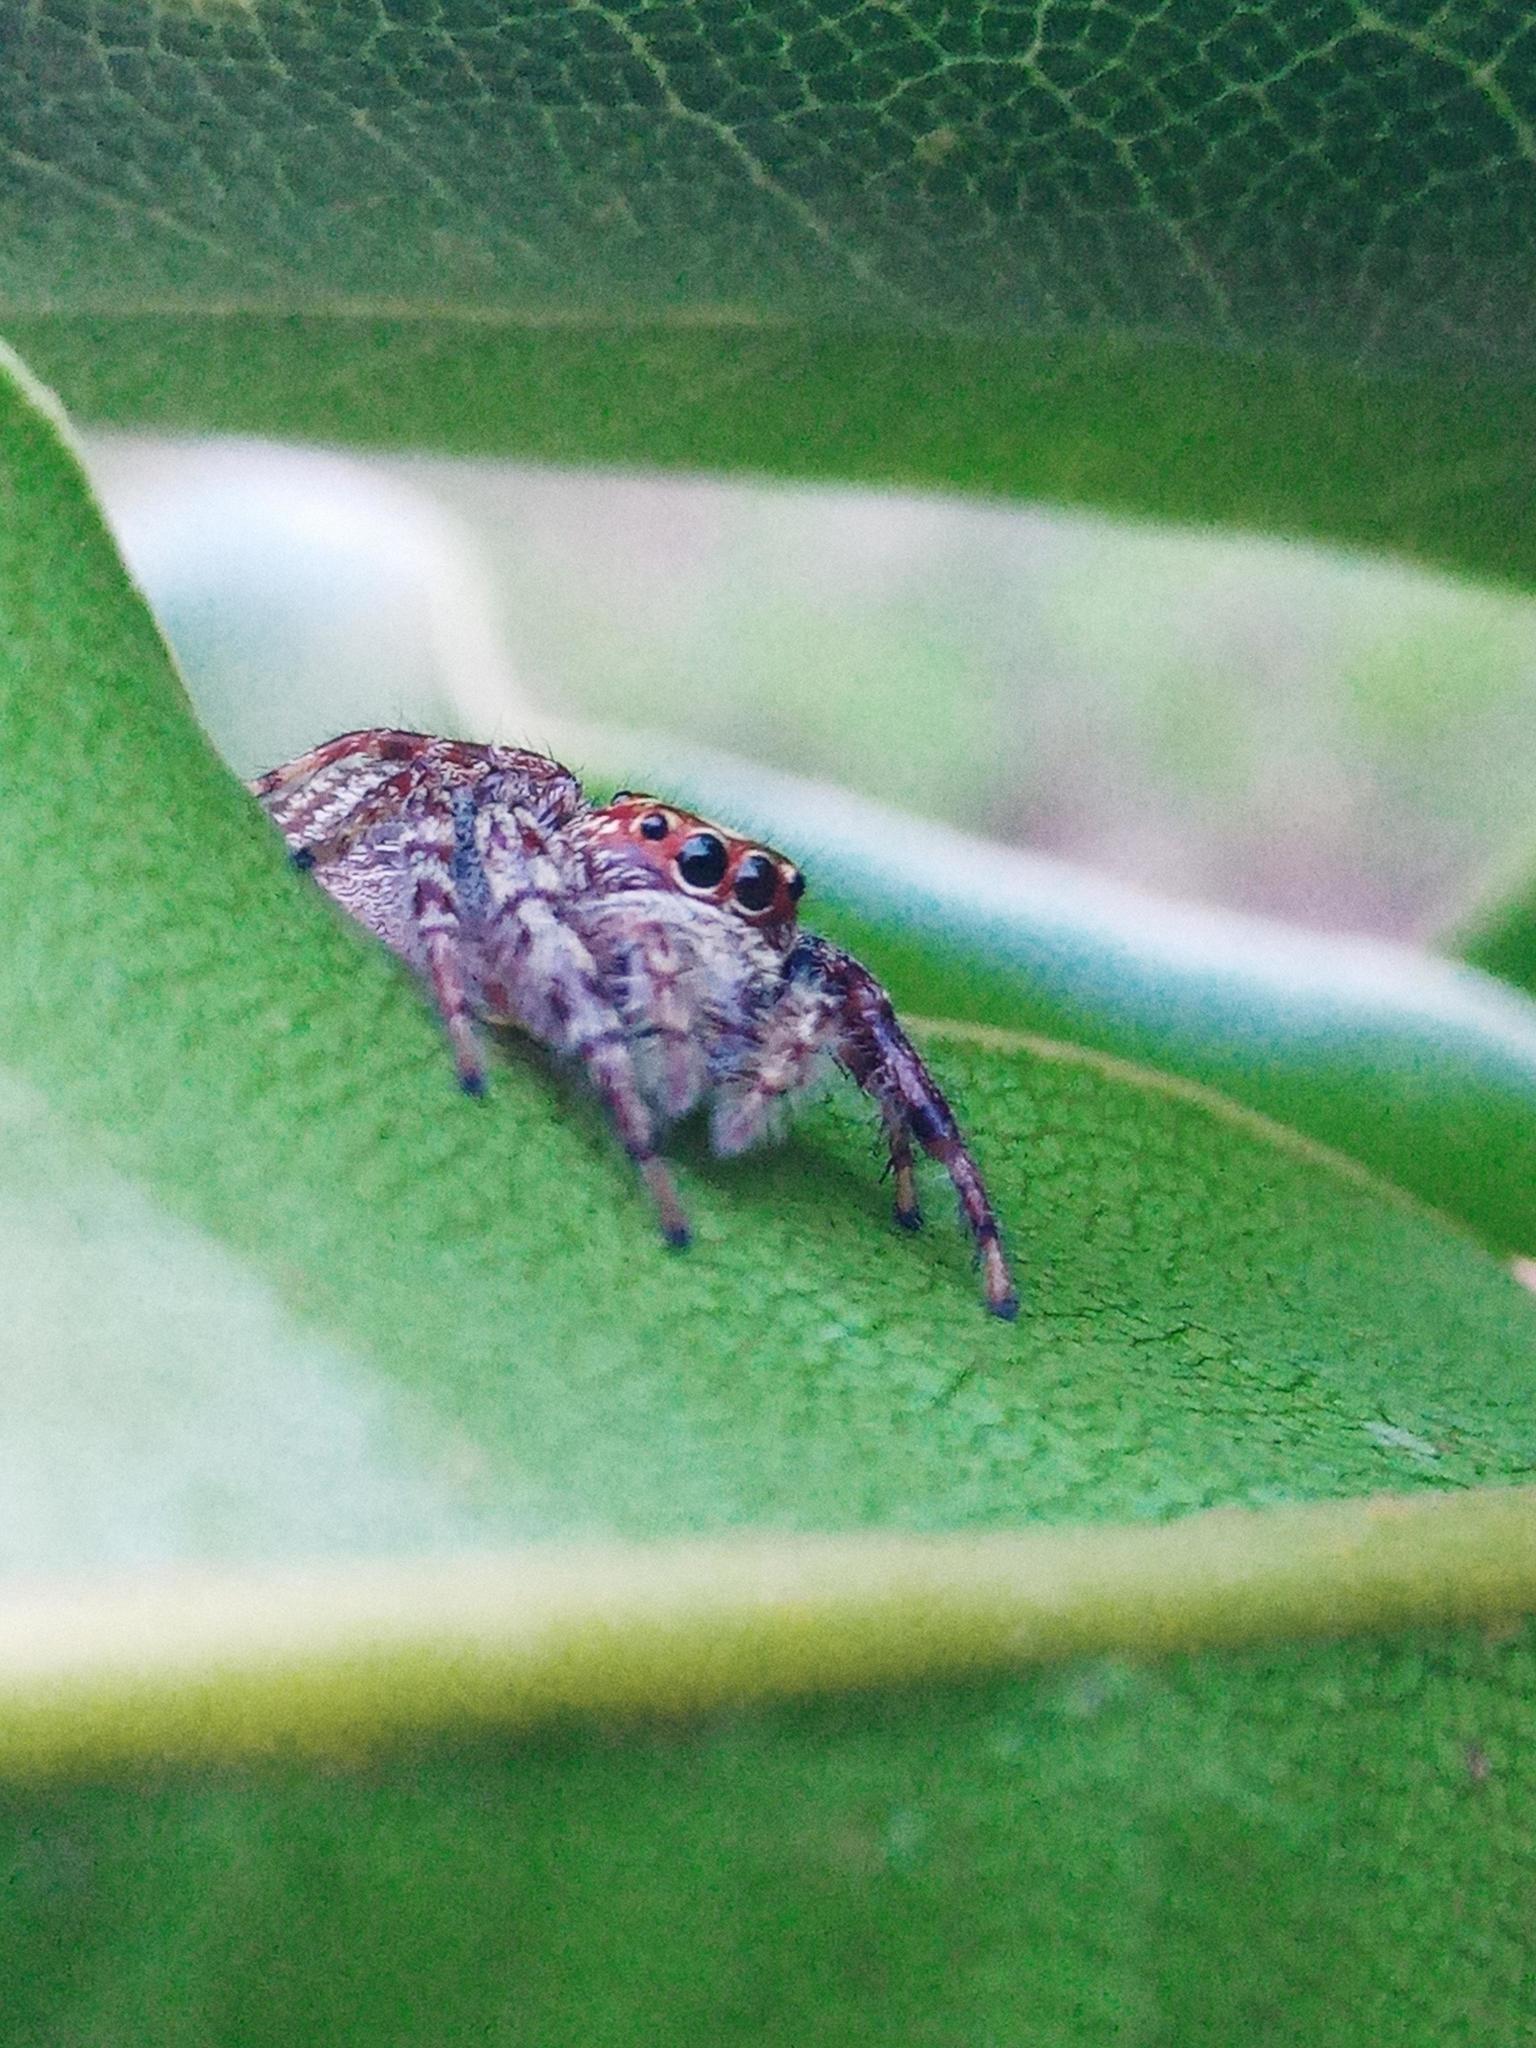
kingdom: Animalia
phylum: Arthropoda
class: Arachnida
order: Araneae
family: Salticidae
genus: Opisthoncus
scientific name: Opisthoncus quadratarius
